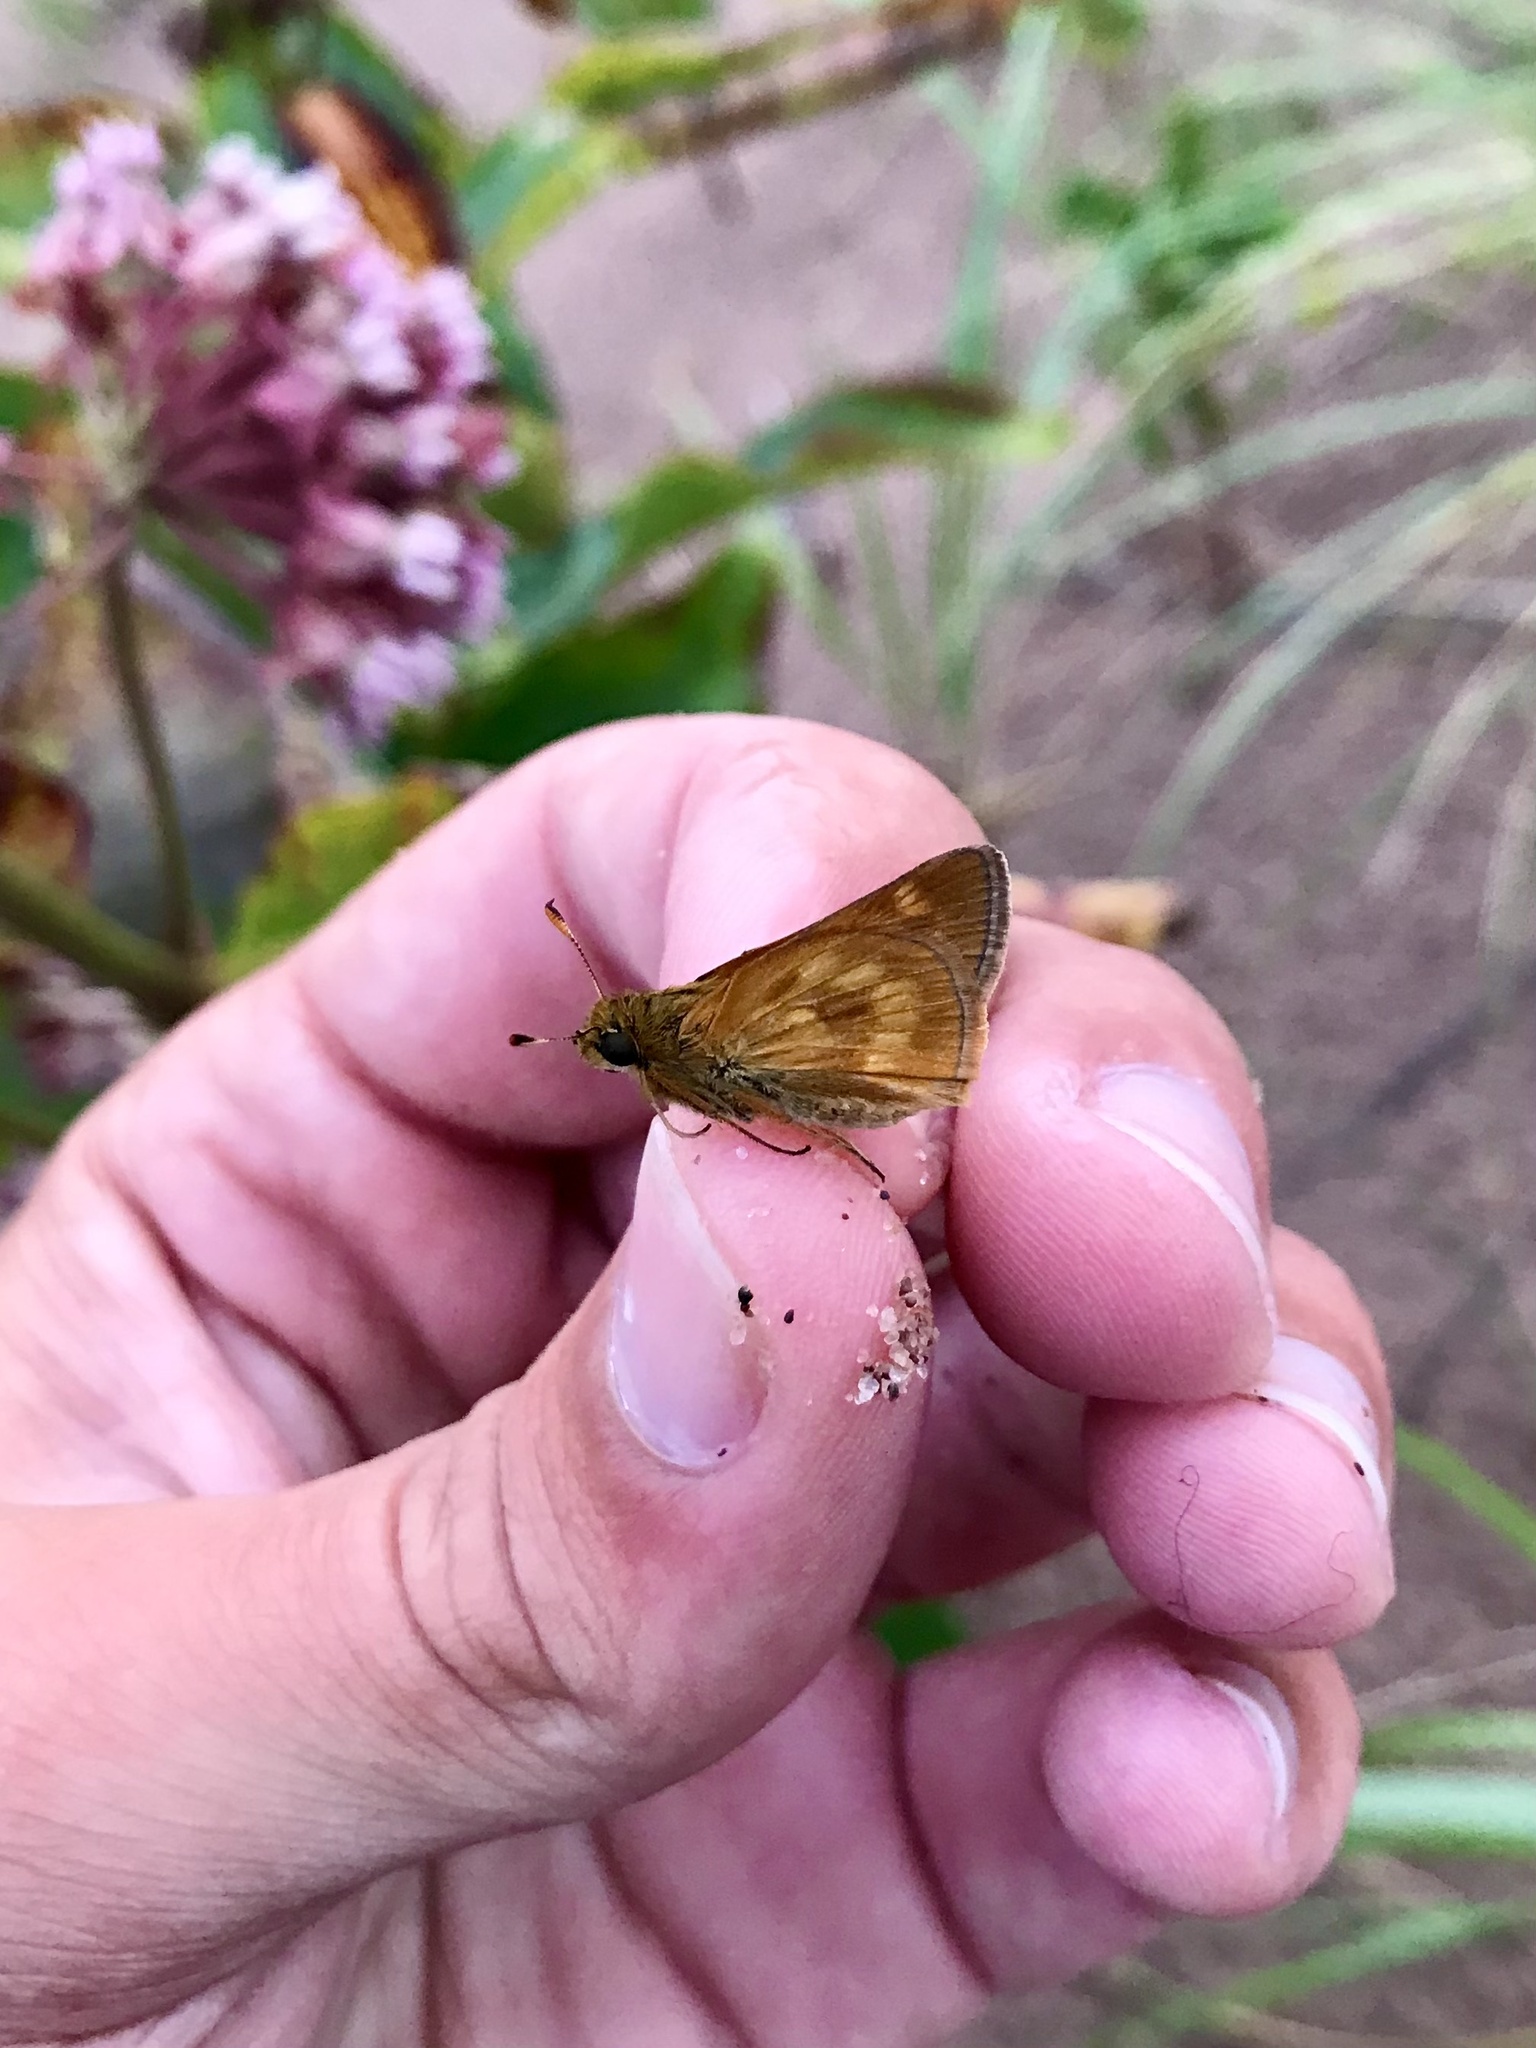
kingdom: Animalia
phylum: Arthropoda
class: Insecta
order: Lepidoptera
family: Hesperiidae
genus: Polites
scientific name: Polites mystic
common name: Long dash
